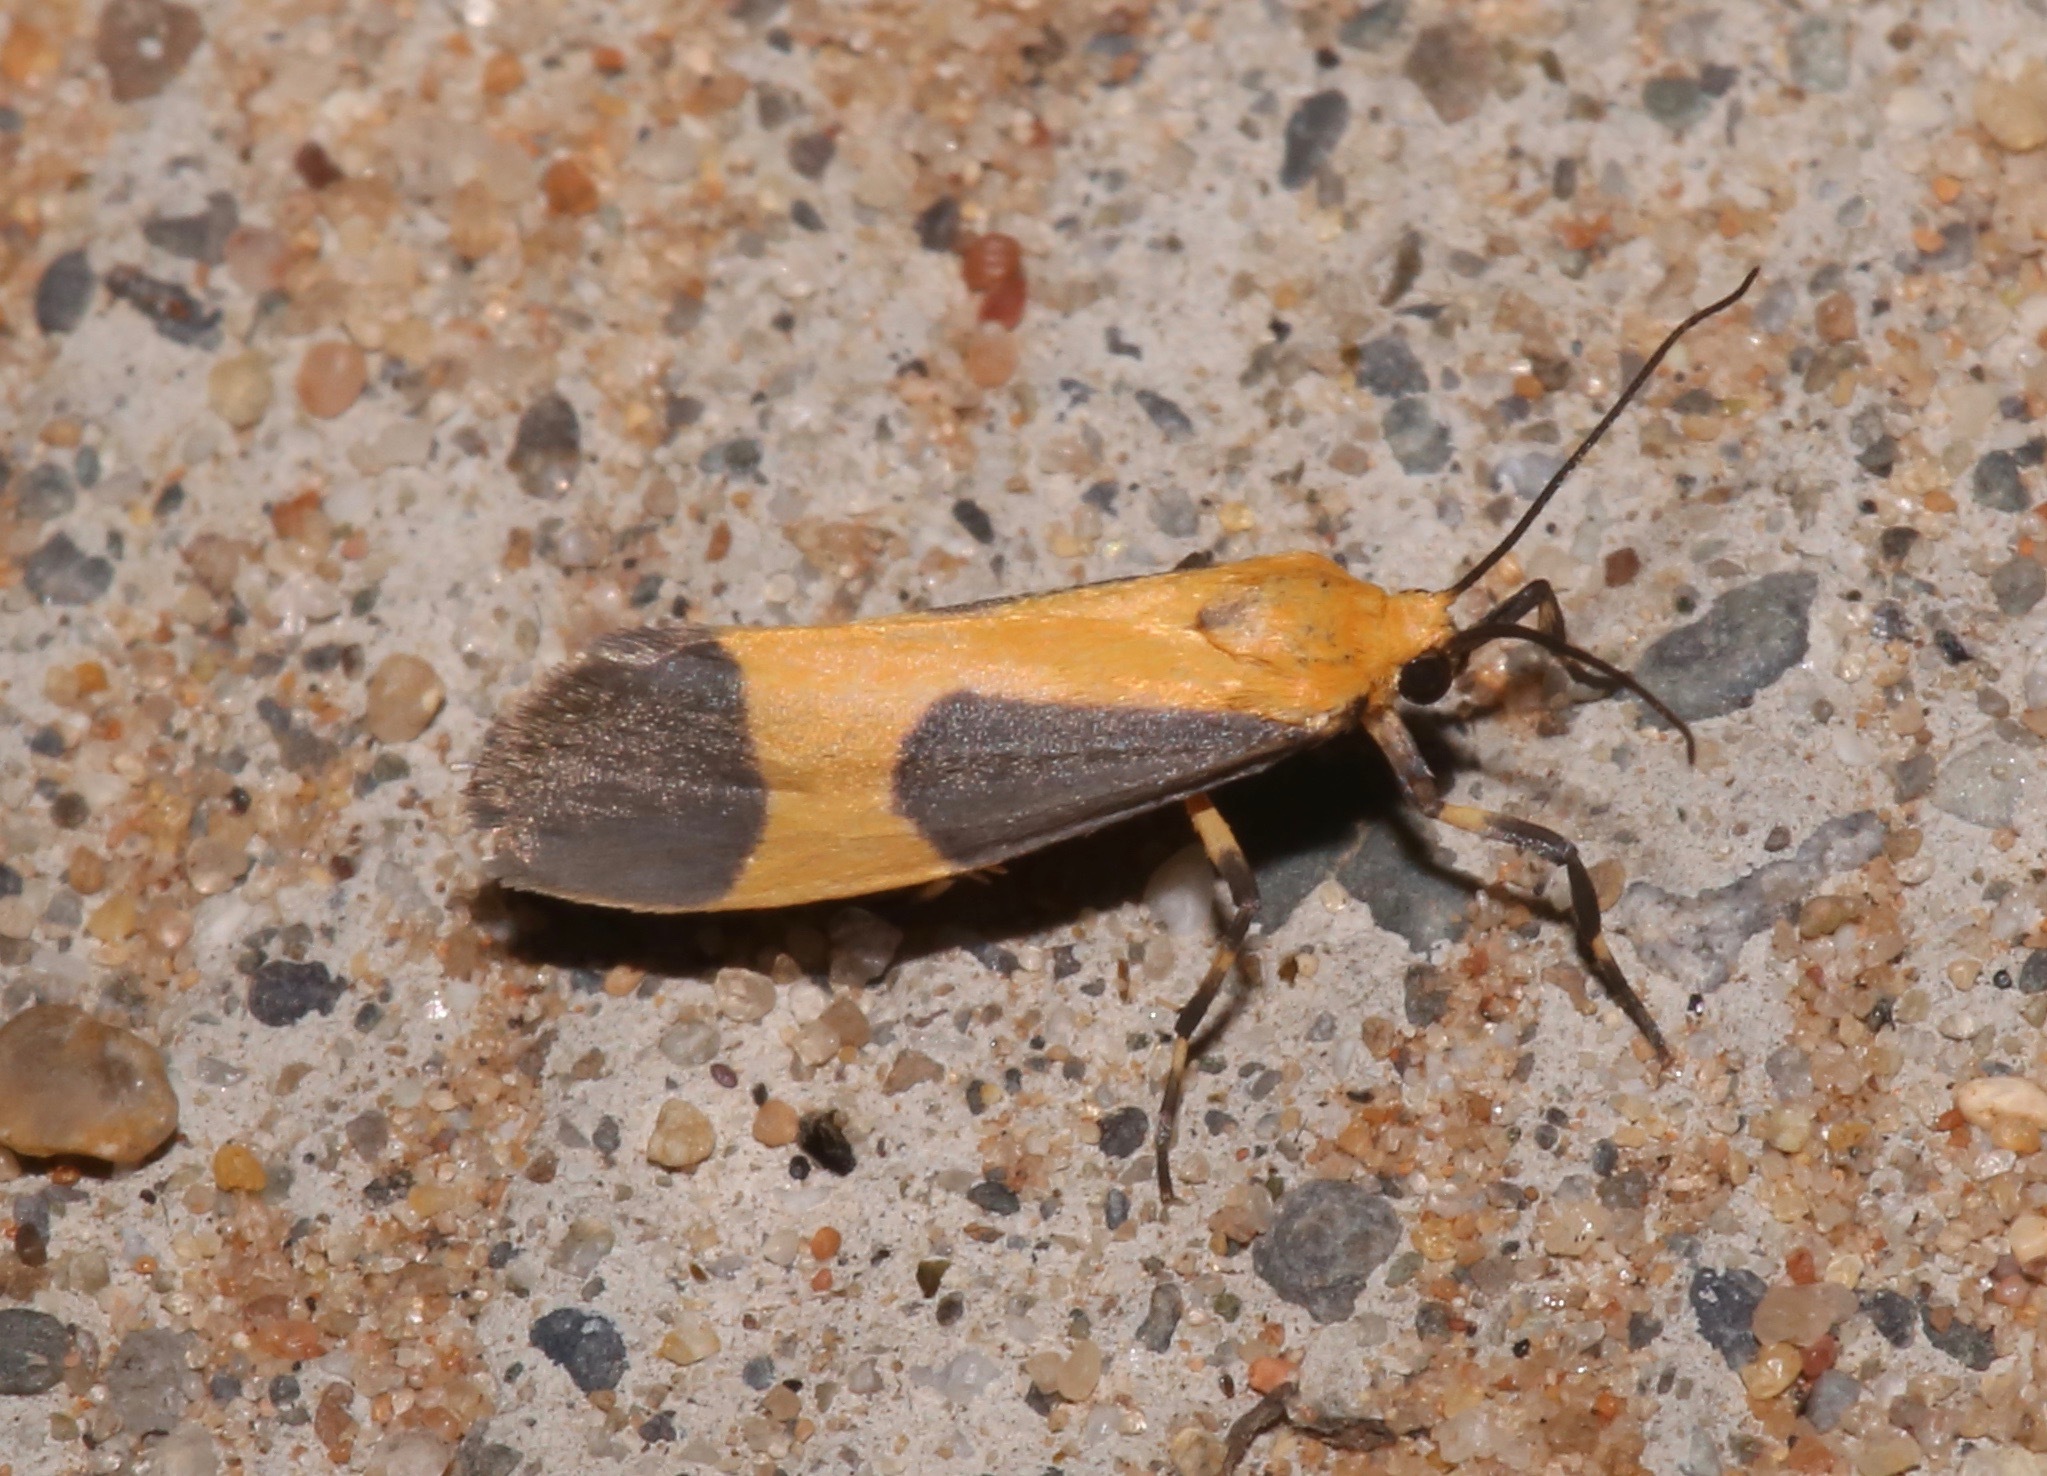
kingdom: Animalia
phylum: Arthropoda
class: Insecta
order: Lepidoptera
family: Erebidae
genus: Cisthene
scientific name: Cisthene picta
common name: Pictured lichen moth
